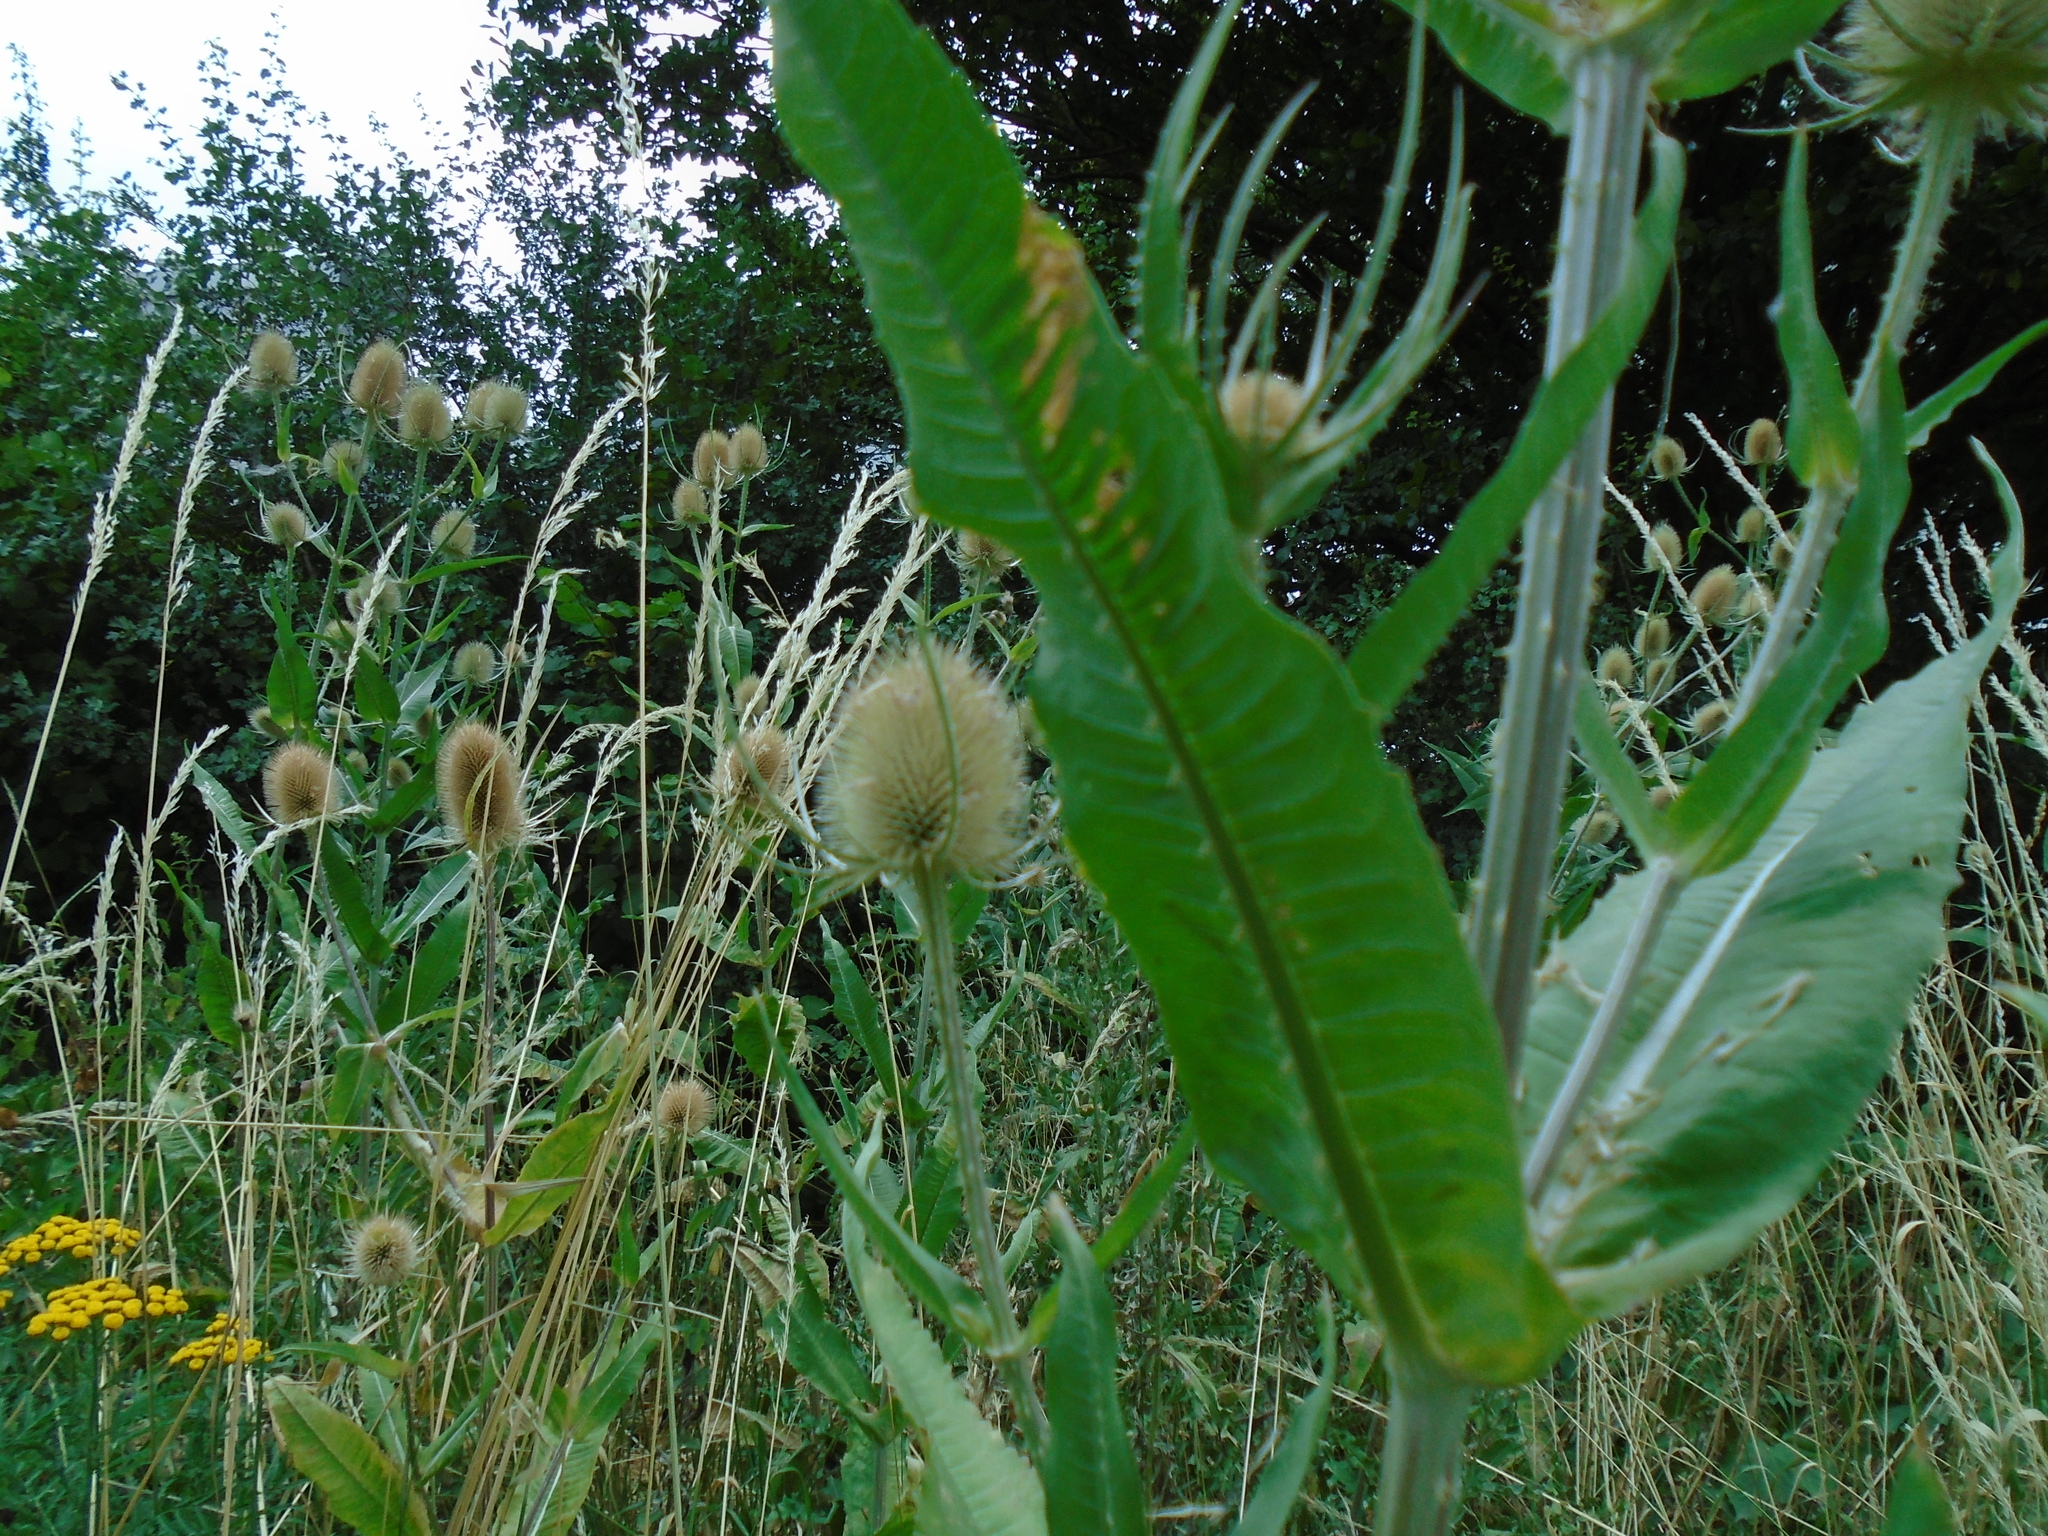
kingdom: Plantae
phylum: Tracheophyta
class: Magnoliopsida
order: Dipsacales
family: Caprifoliaceae
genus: Dipsacus
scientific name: Dipsacus fullonum
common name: Teasel
